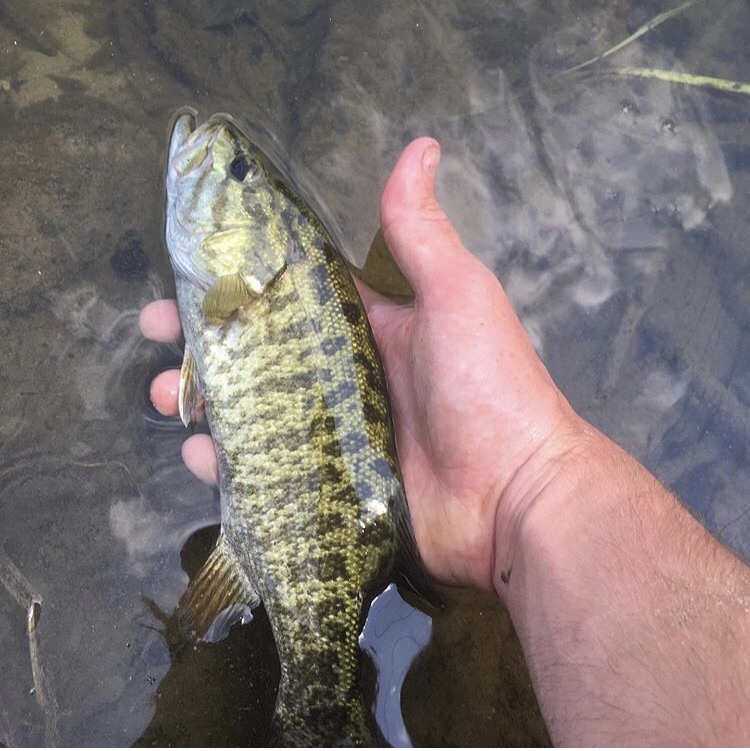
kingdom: Animalia
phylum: Chordata
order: Perciformes
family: Centrarchidae
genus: Micropterus
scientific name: Micropterus dolomieu
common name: Smallmouth bass
